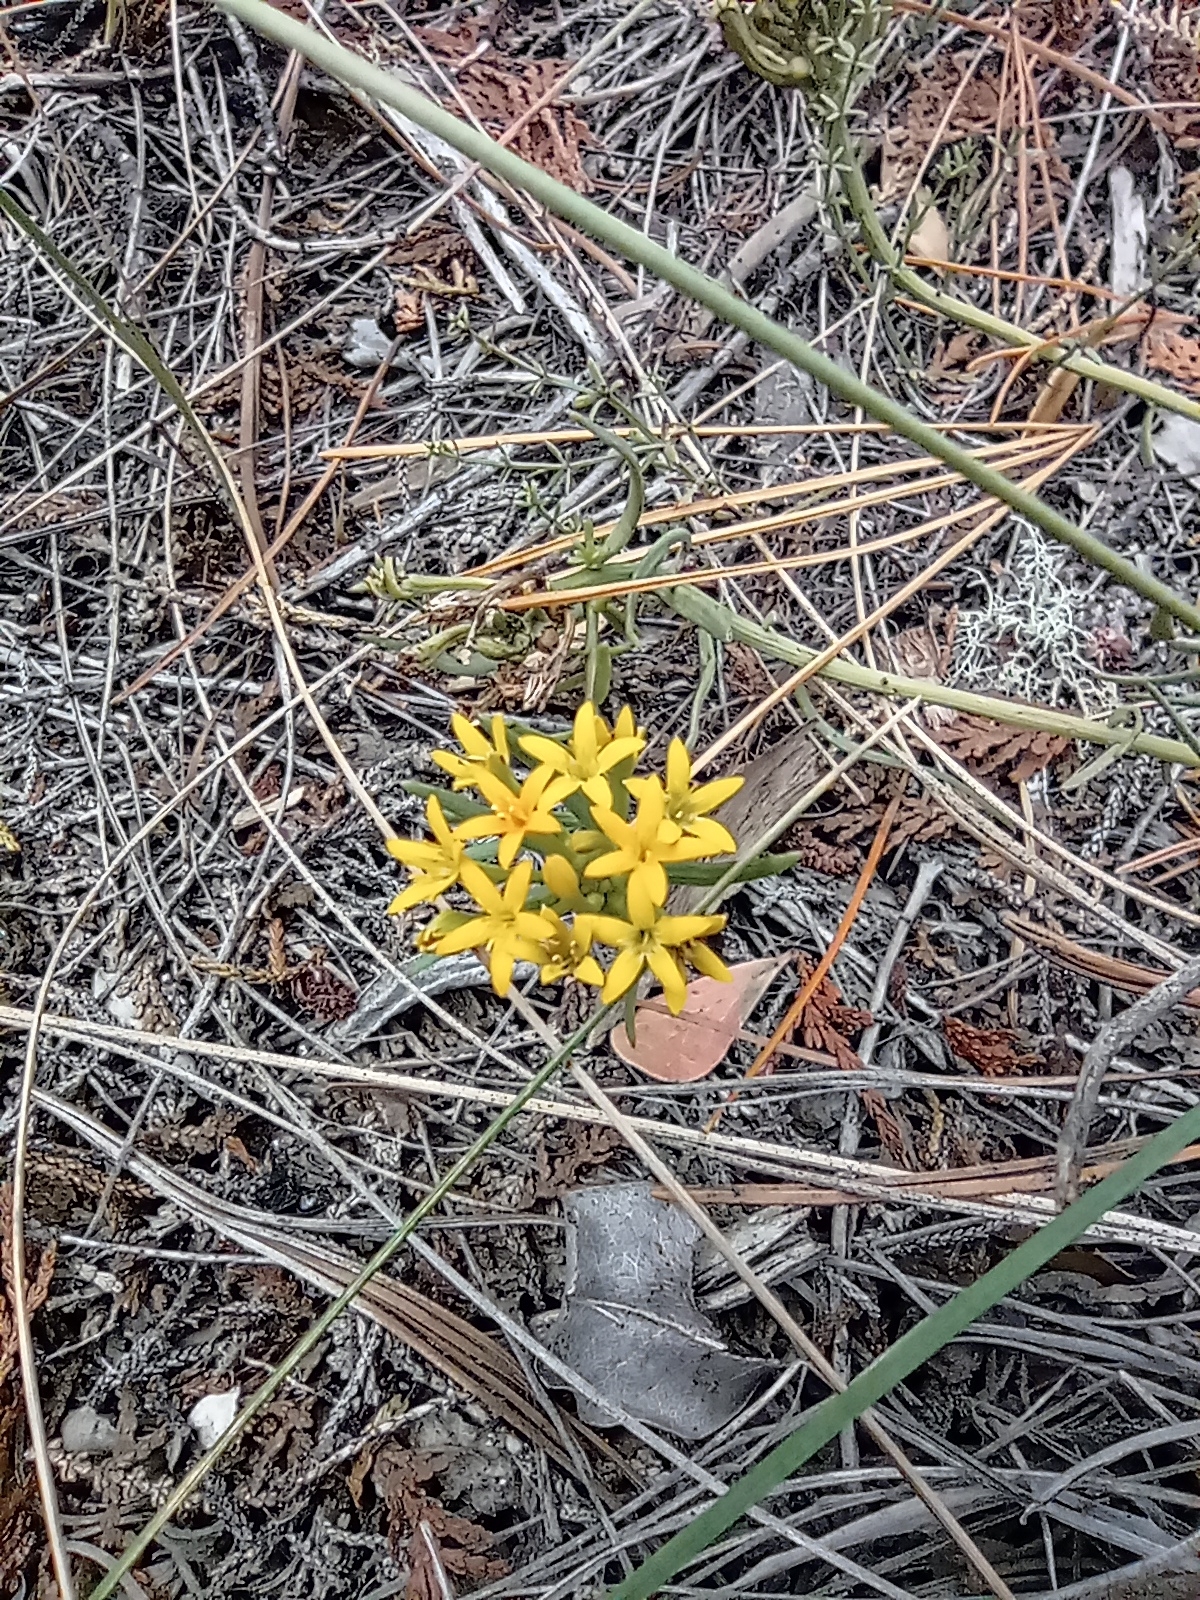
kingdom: Plantae
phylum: Tracheophyta
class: Magnoliopsida
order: Santalales
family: Schoepfiaceae
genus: Quinchamalium
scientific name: Quinchamalium chilense
